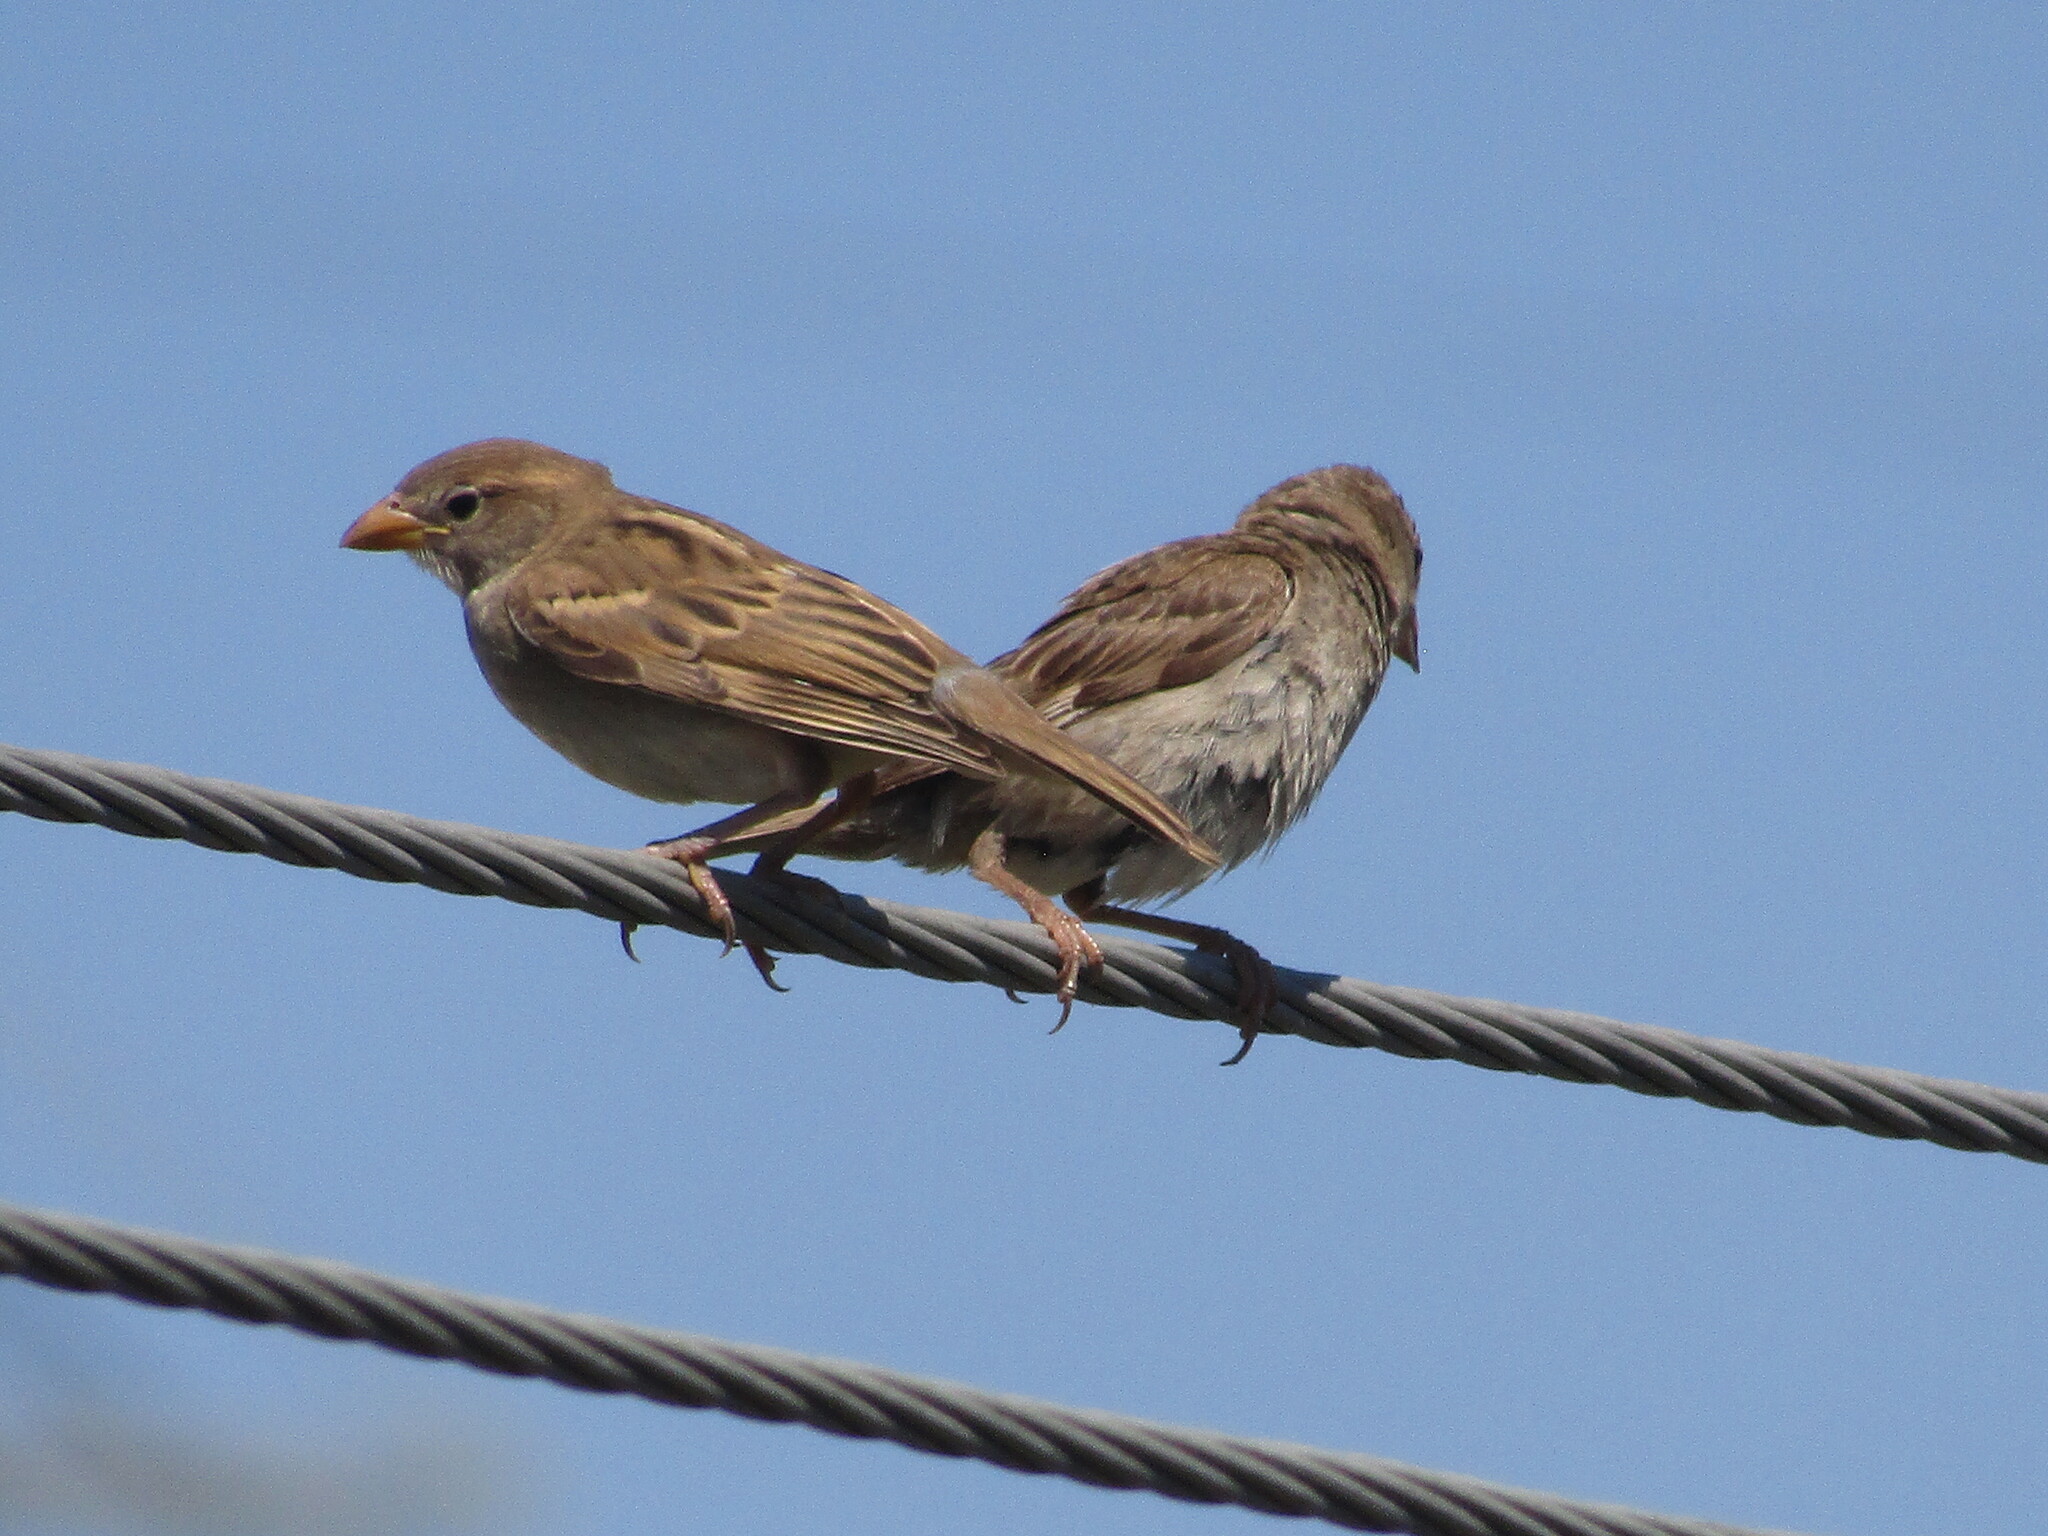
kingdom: Animalia
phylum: Chordata
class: Aves
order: Passeriformes
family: Passeridae
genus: Passer
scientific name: Passer domesticus
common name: House sparrow
